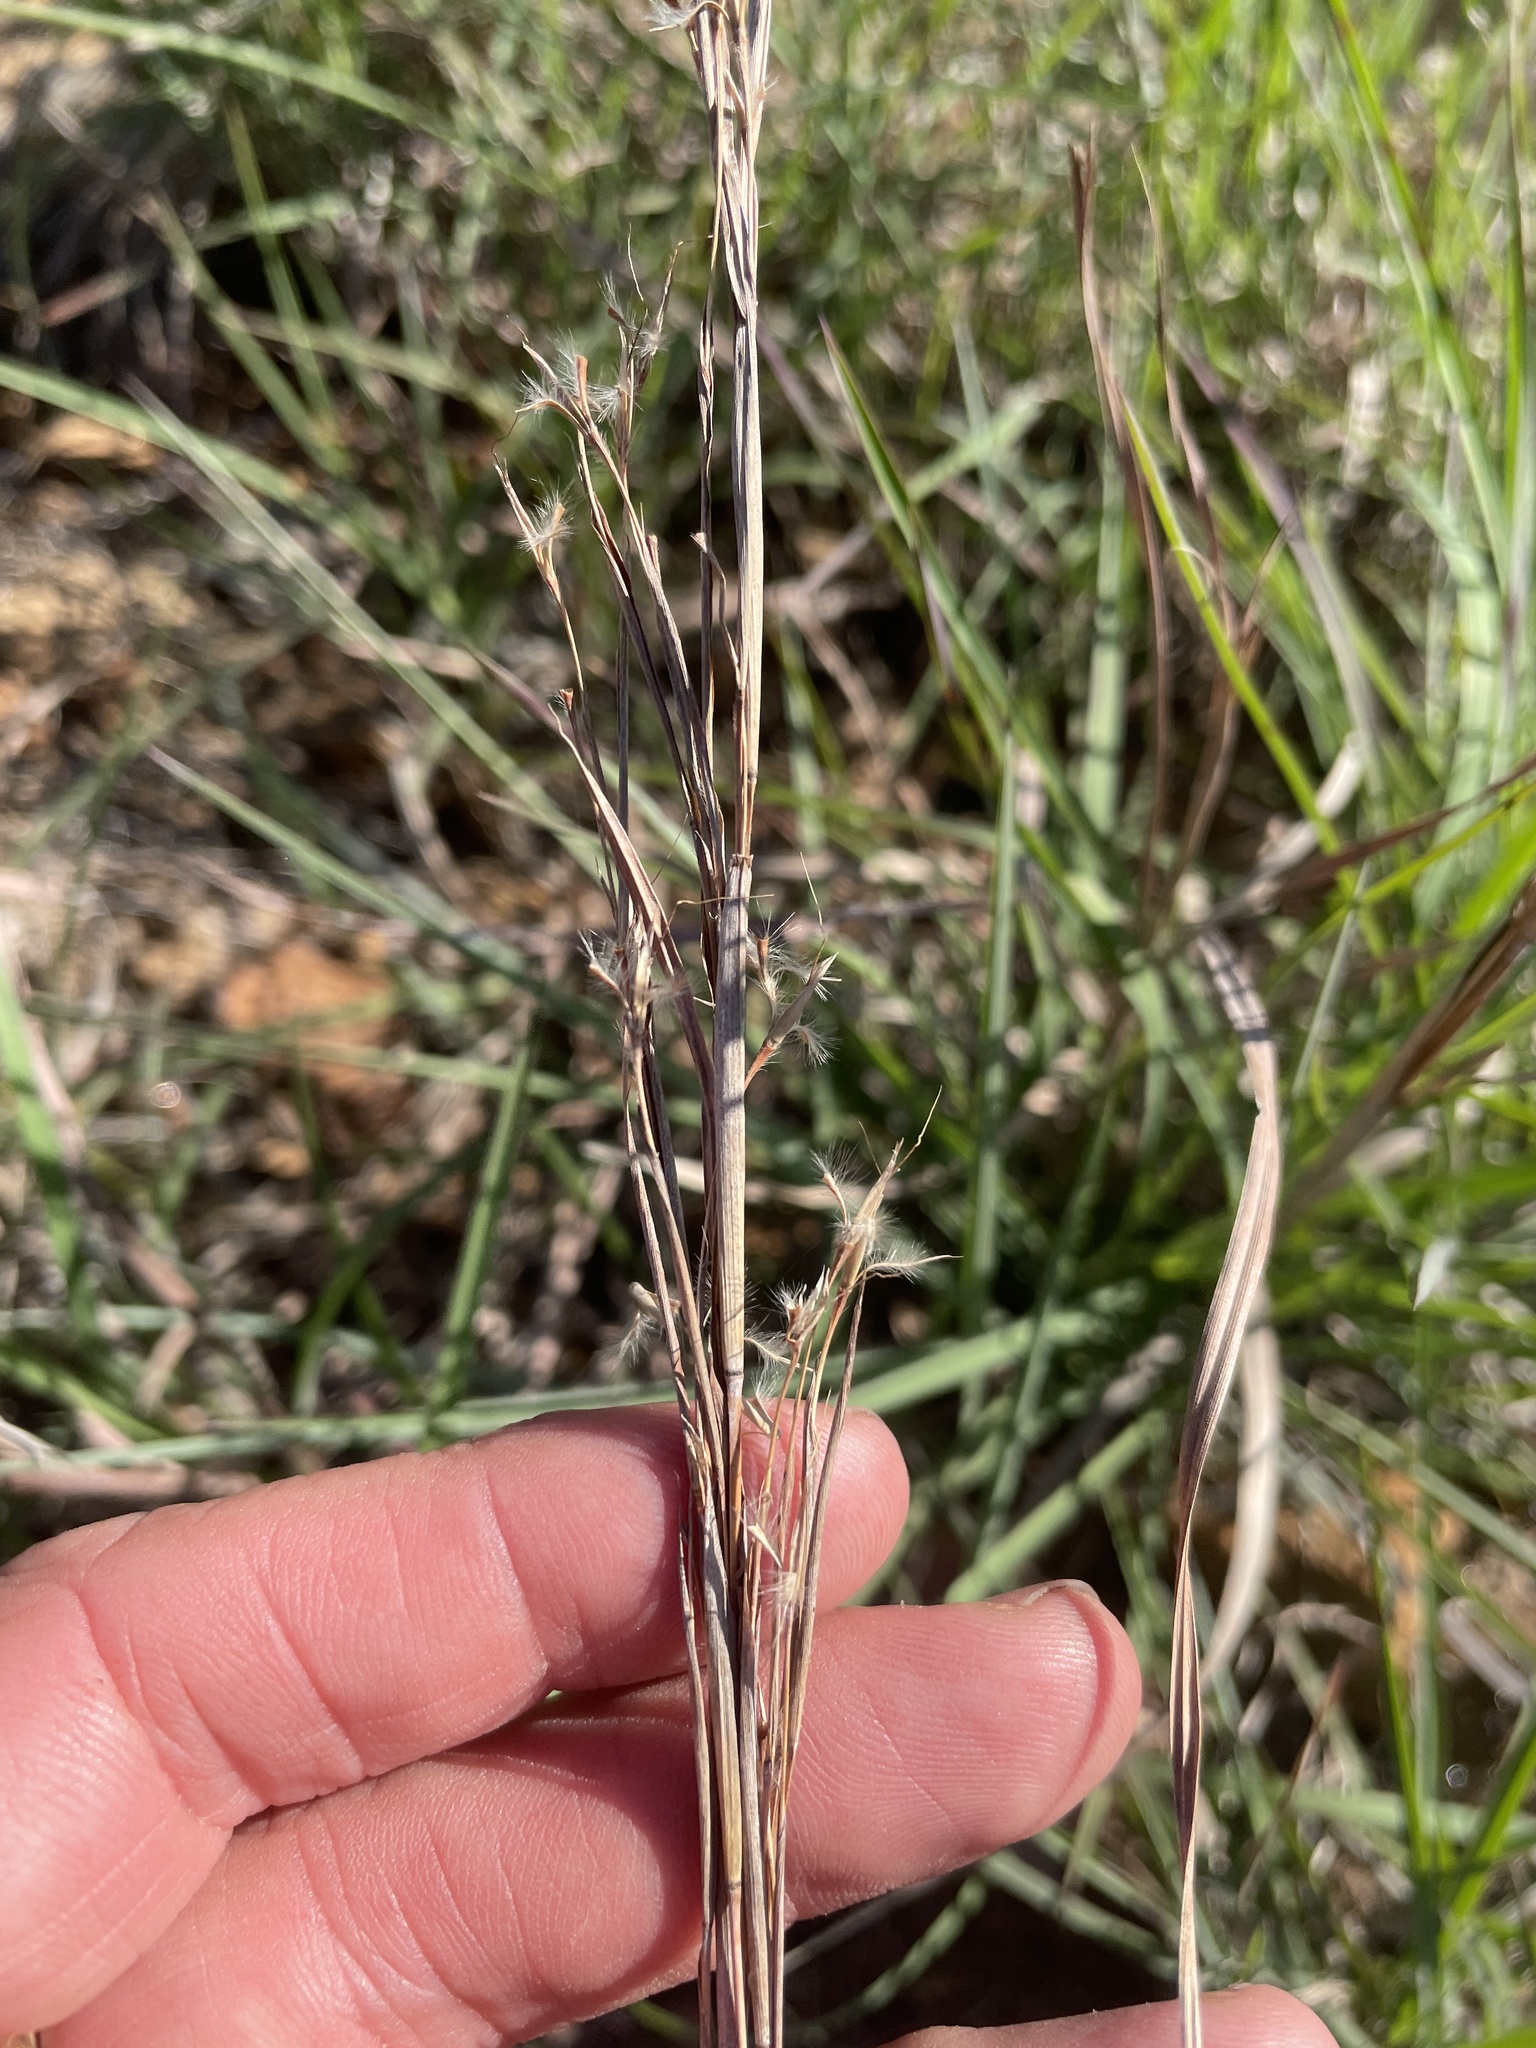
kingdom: Plantae
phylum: Tracheophyta
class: Liliopsida
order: Poales
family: Poaceae
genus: Schizachyrium
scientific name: Schizachyrium scoparium
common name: Little bluestem
